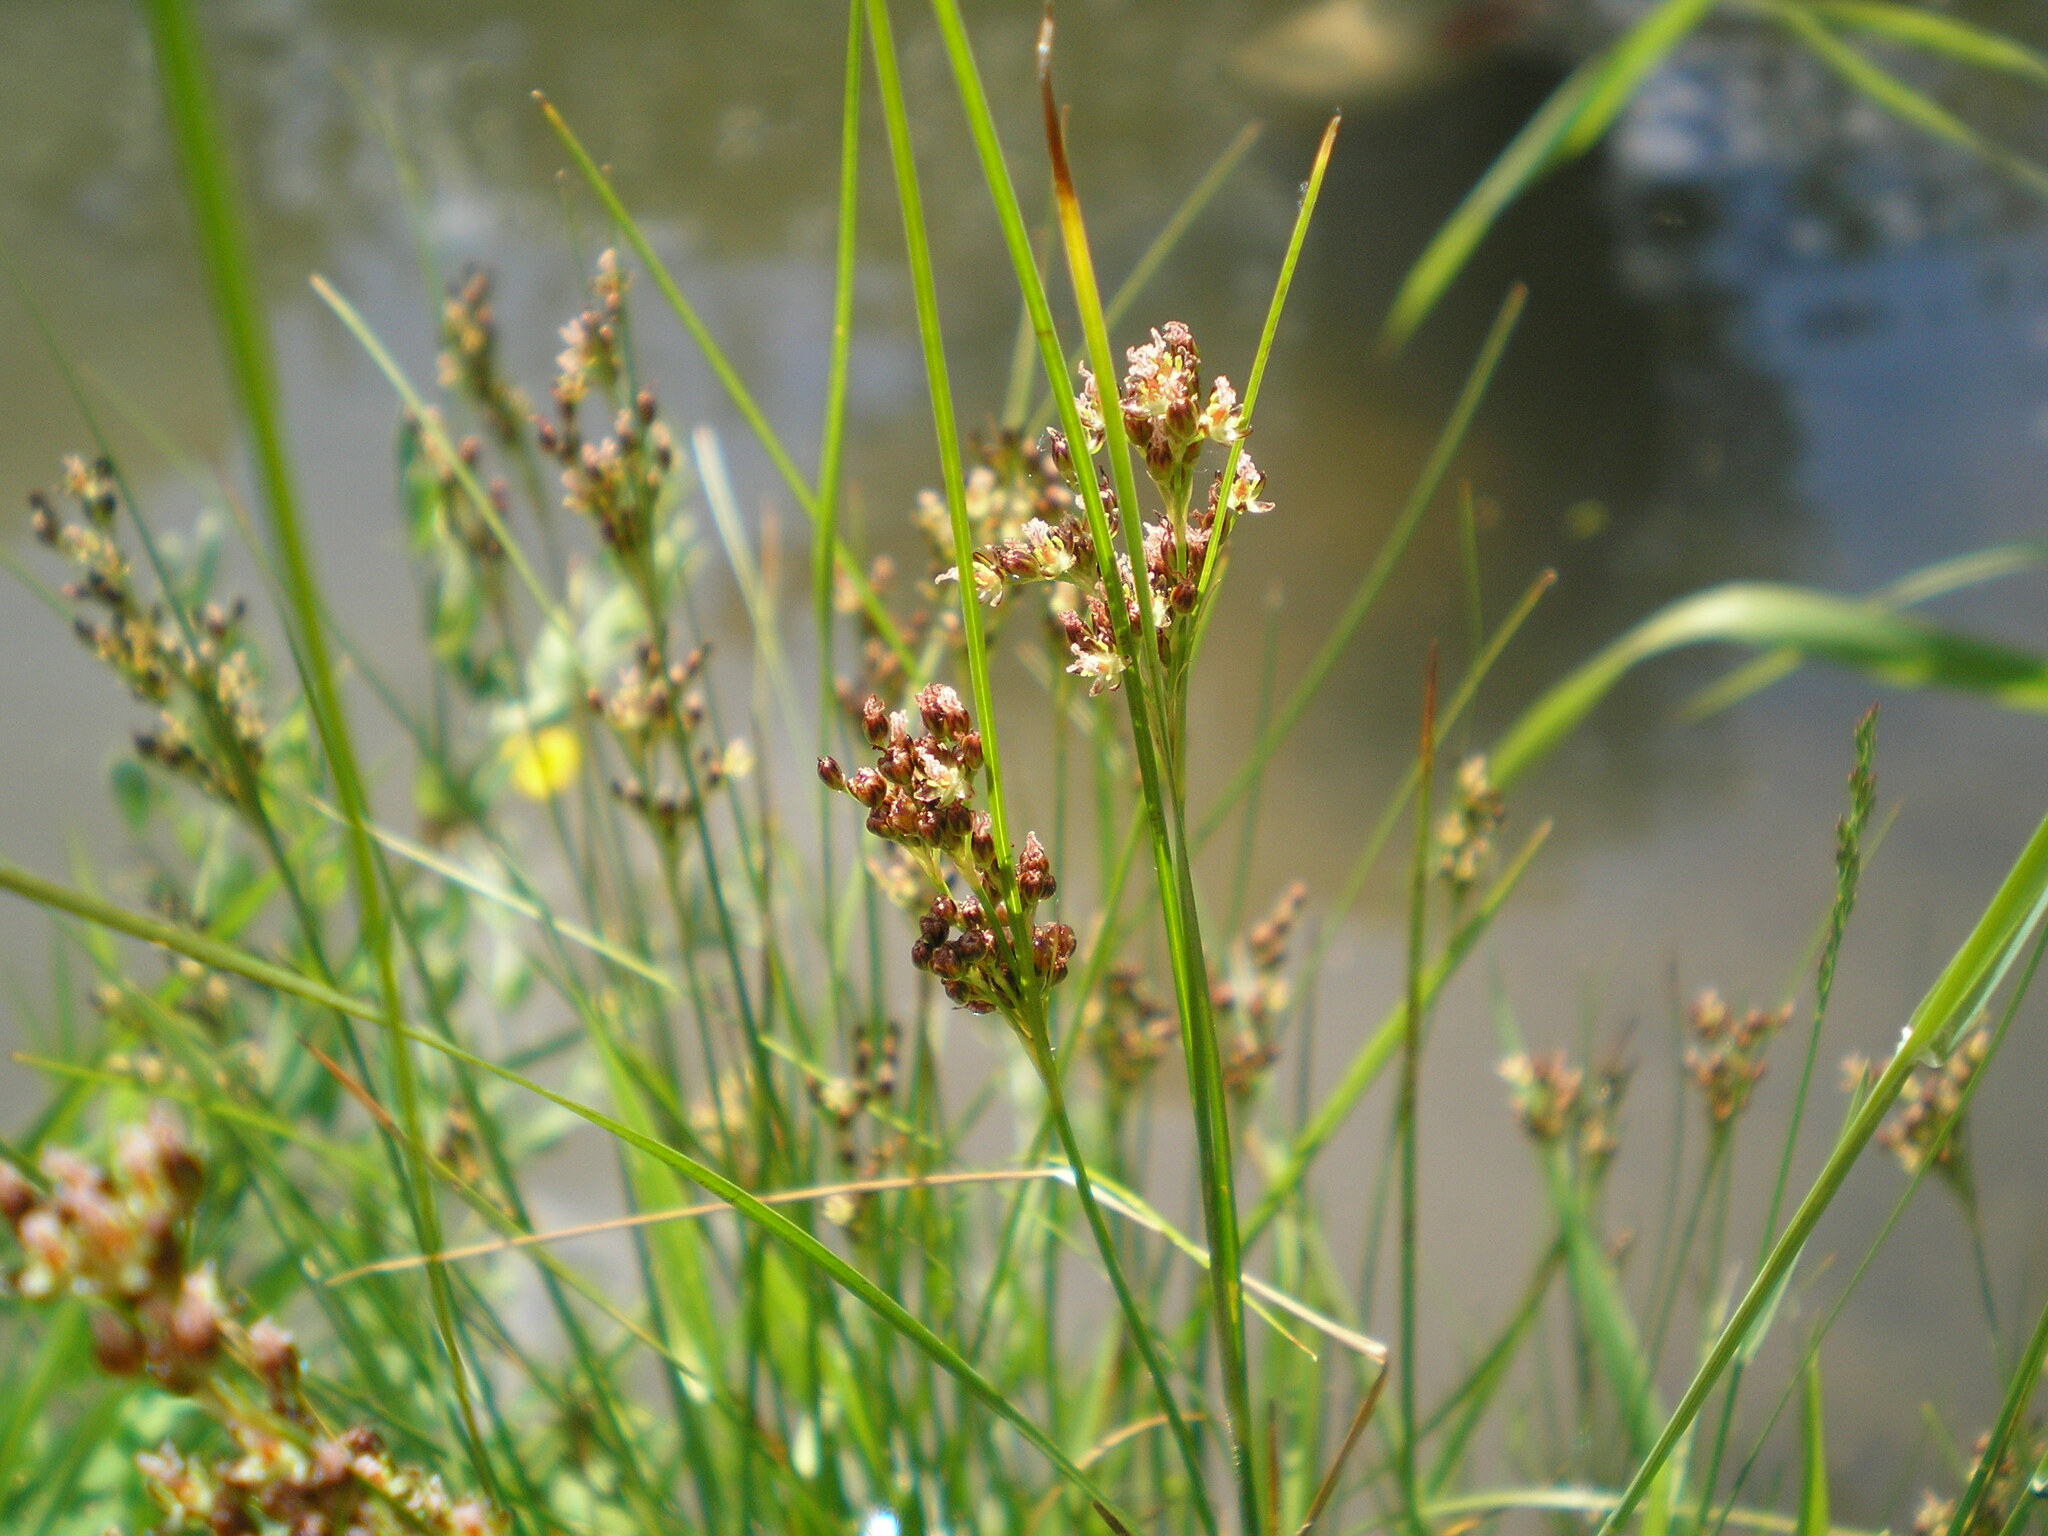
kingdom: Plantae
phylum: Tracheophyta
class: Liliopsida
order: Poales
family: Juncaceae
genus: Juncus
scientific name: Juncus compressus
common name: Round-fruited rush
